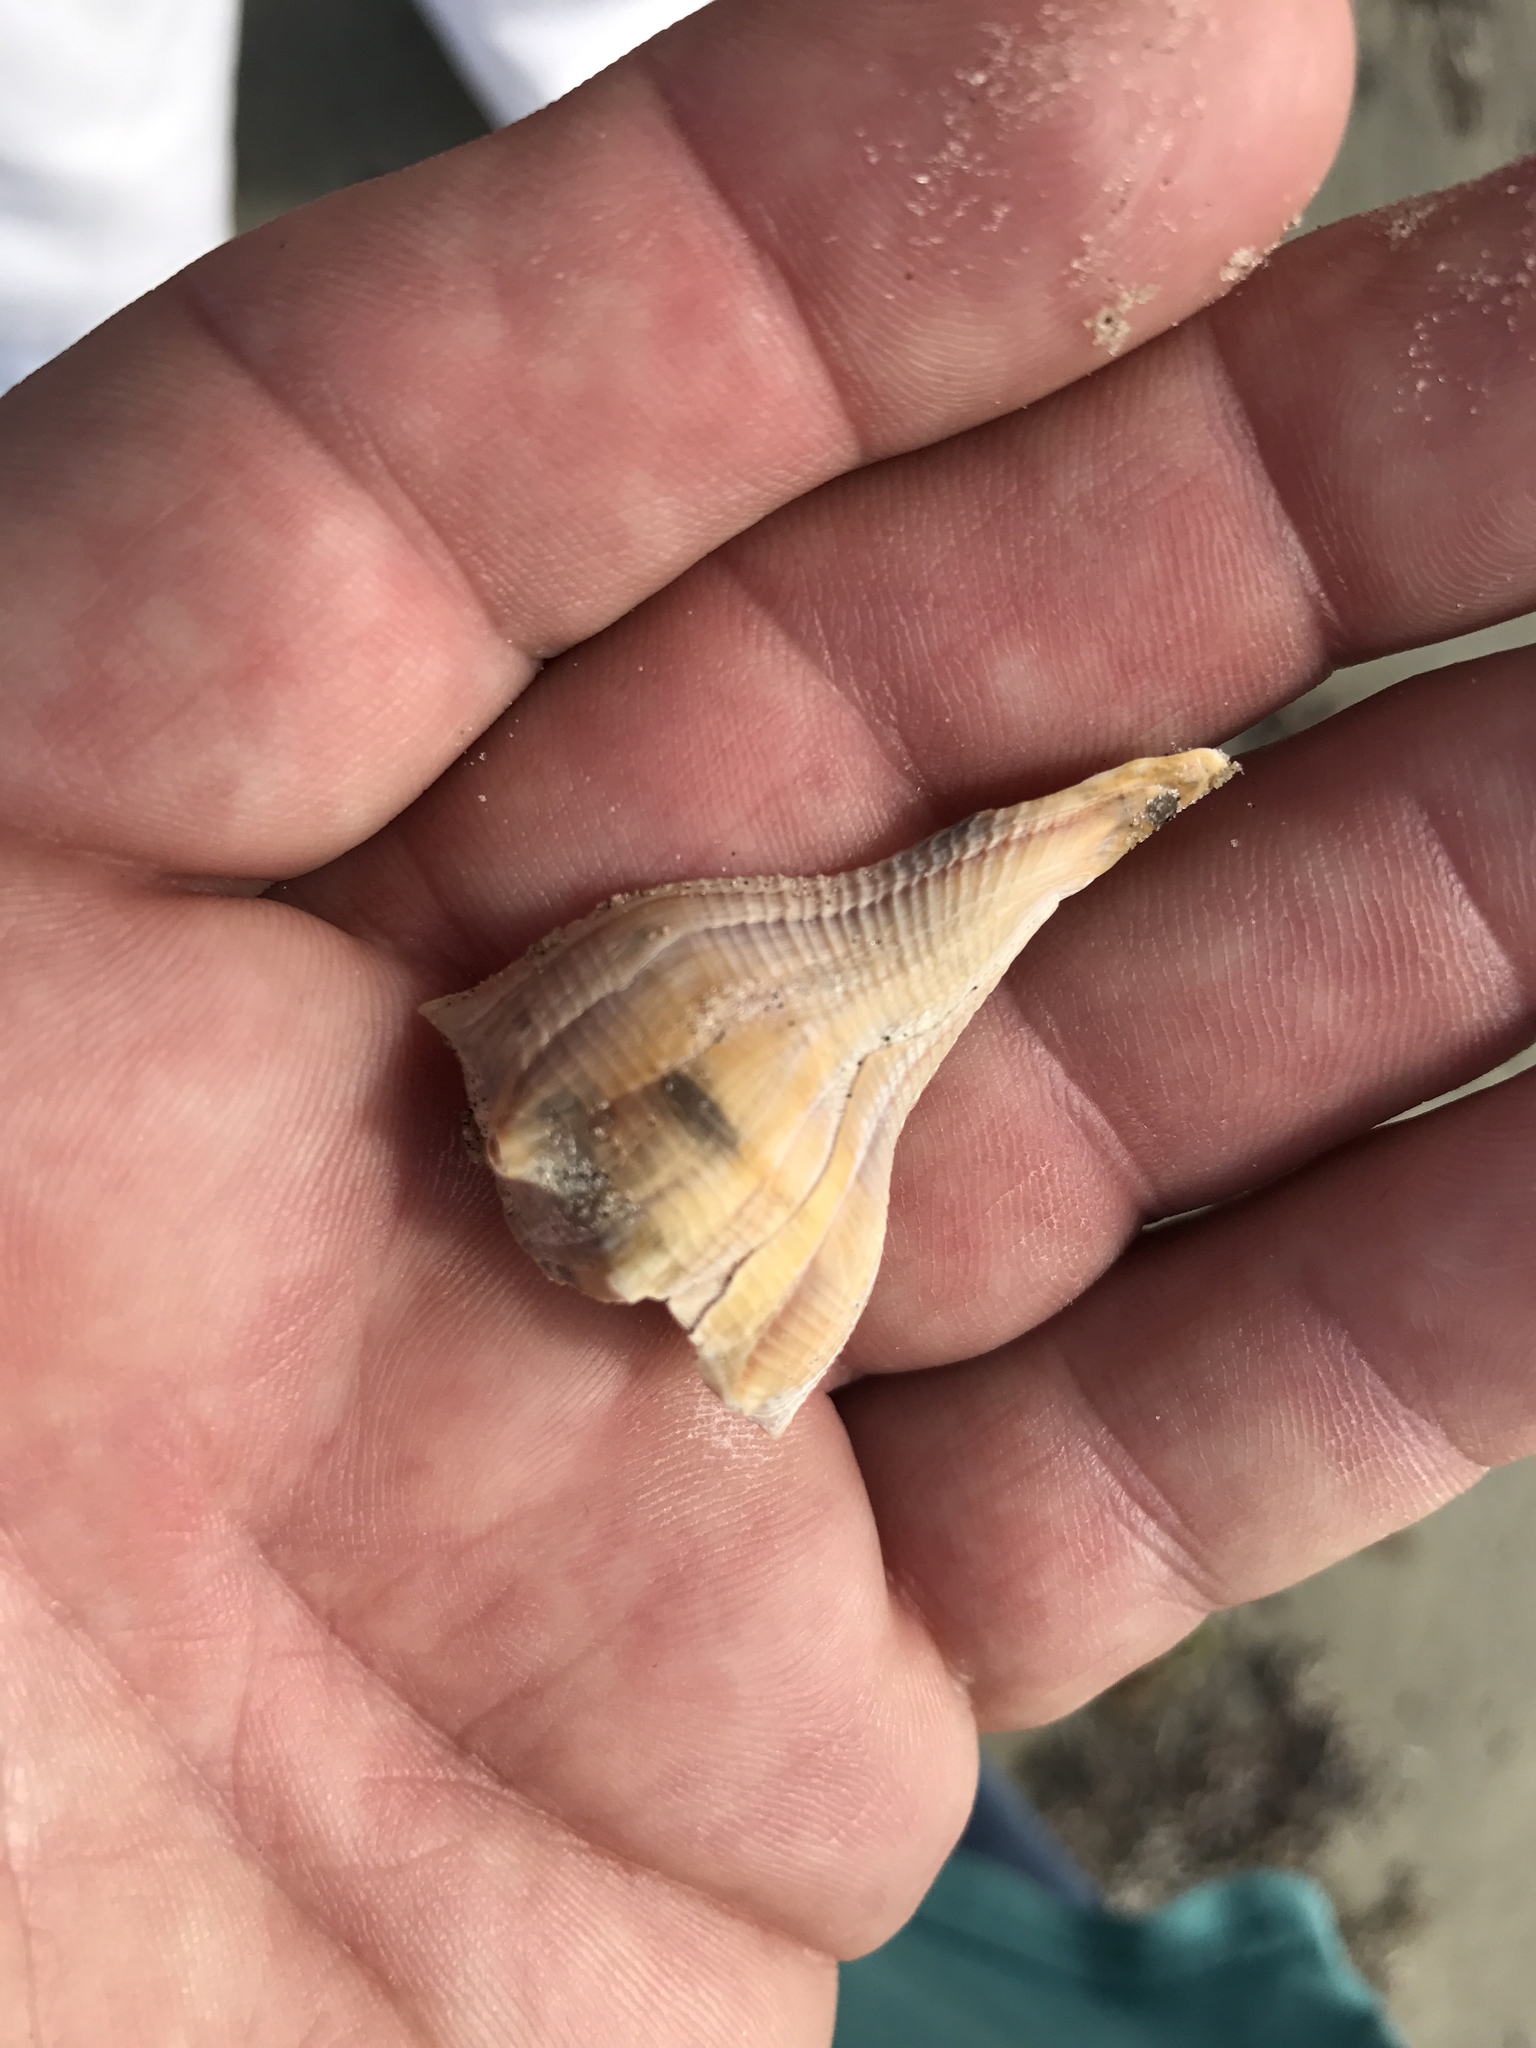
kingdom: Animalia
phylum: Mollusca
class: Gastropoda
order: Neogastropoda
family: Busyconidae
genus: Sinistrofulgur
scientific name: Sinistrofulgur pulleyi
